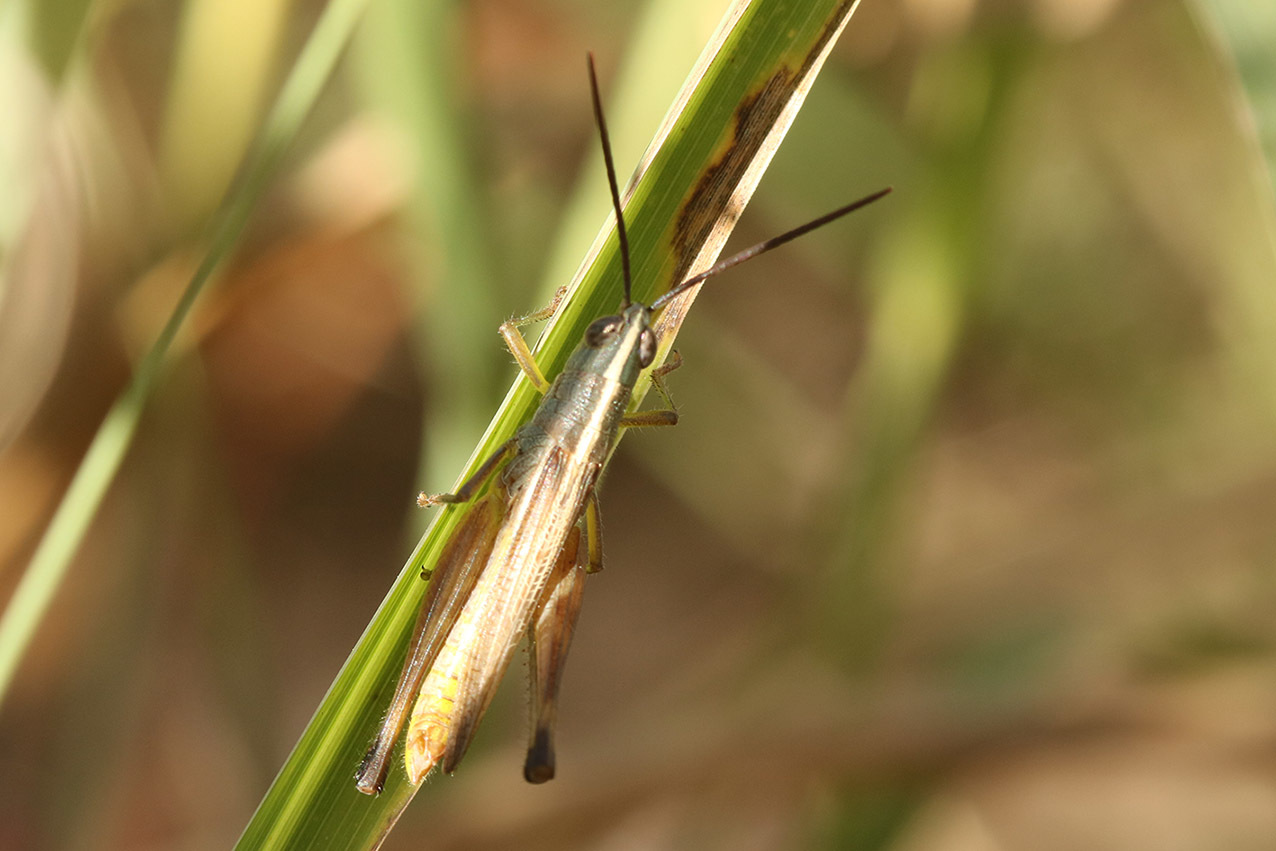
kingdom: Animalia
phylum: Arthropoda
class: Insecta
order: Orthoptera
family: Acrididae
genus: Staurorhectus
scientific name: Staurorhectus longicornis
